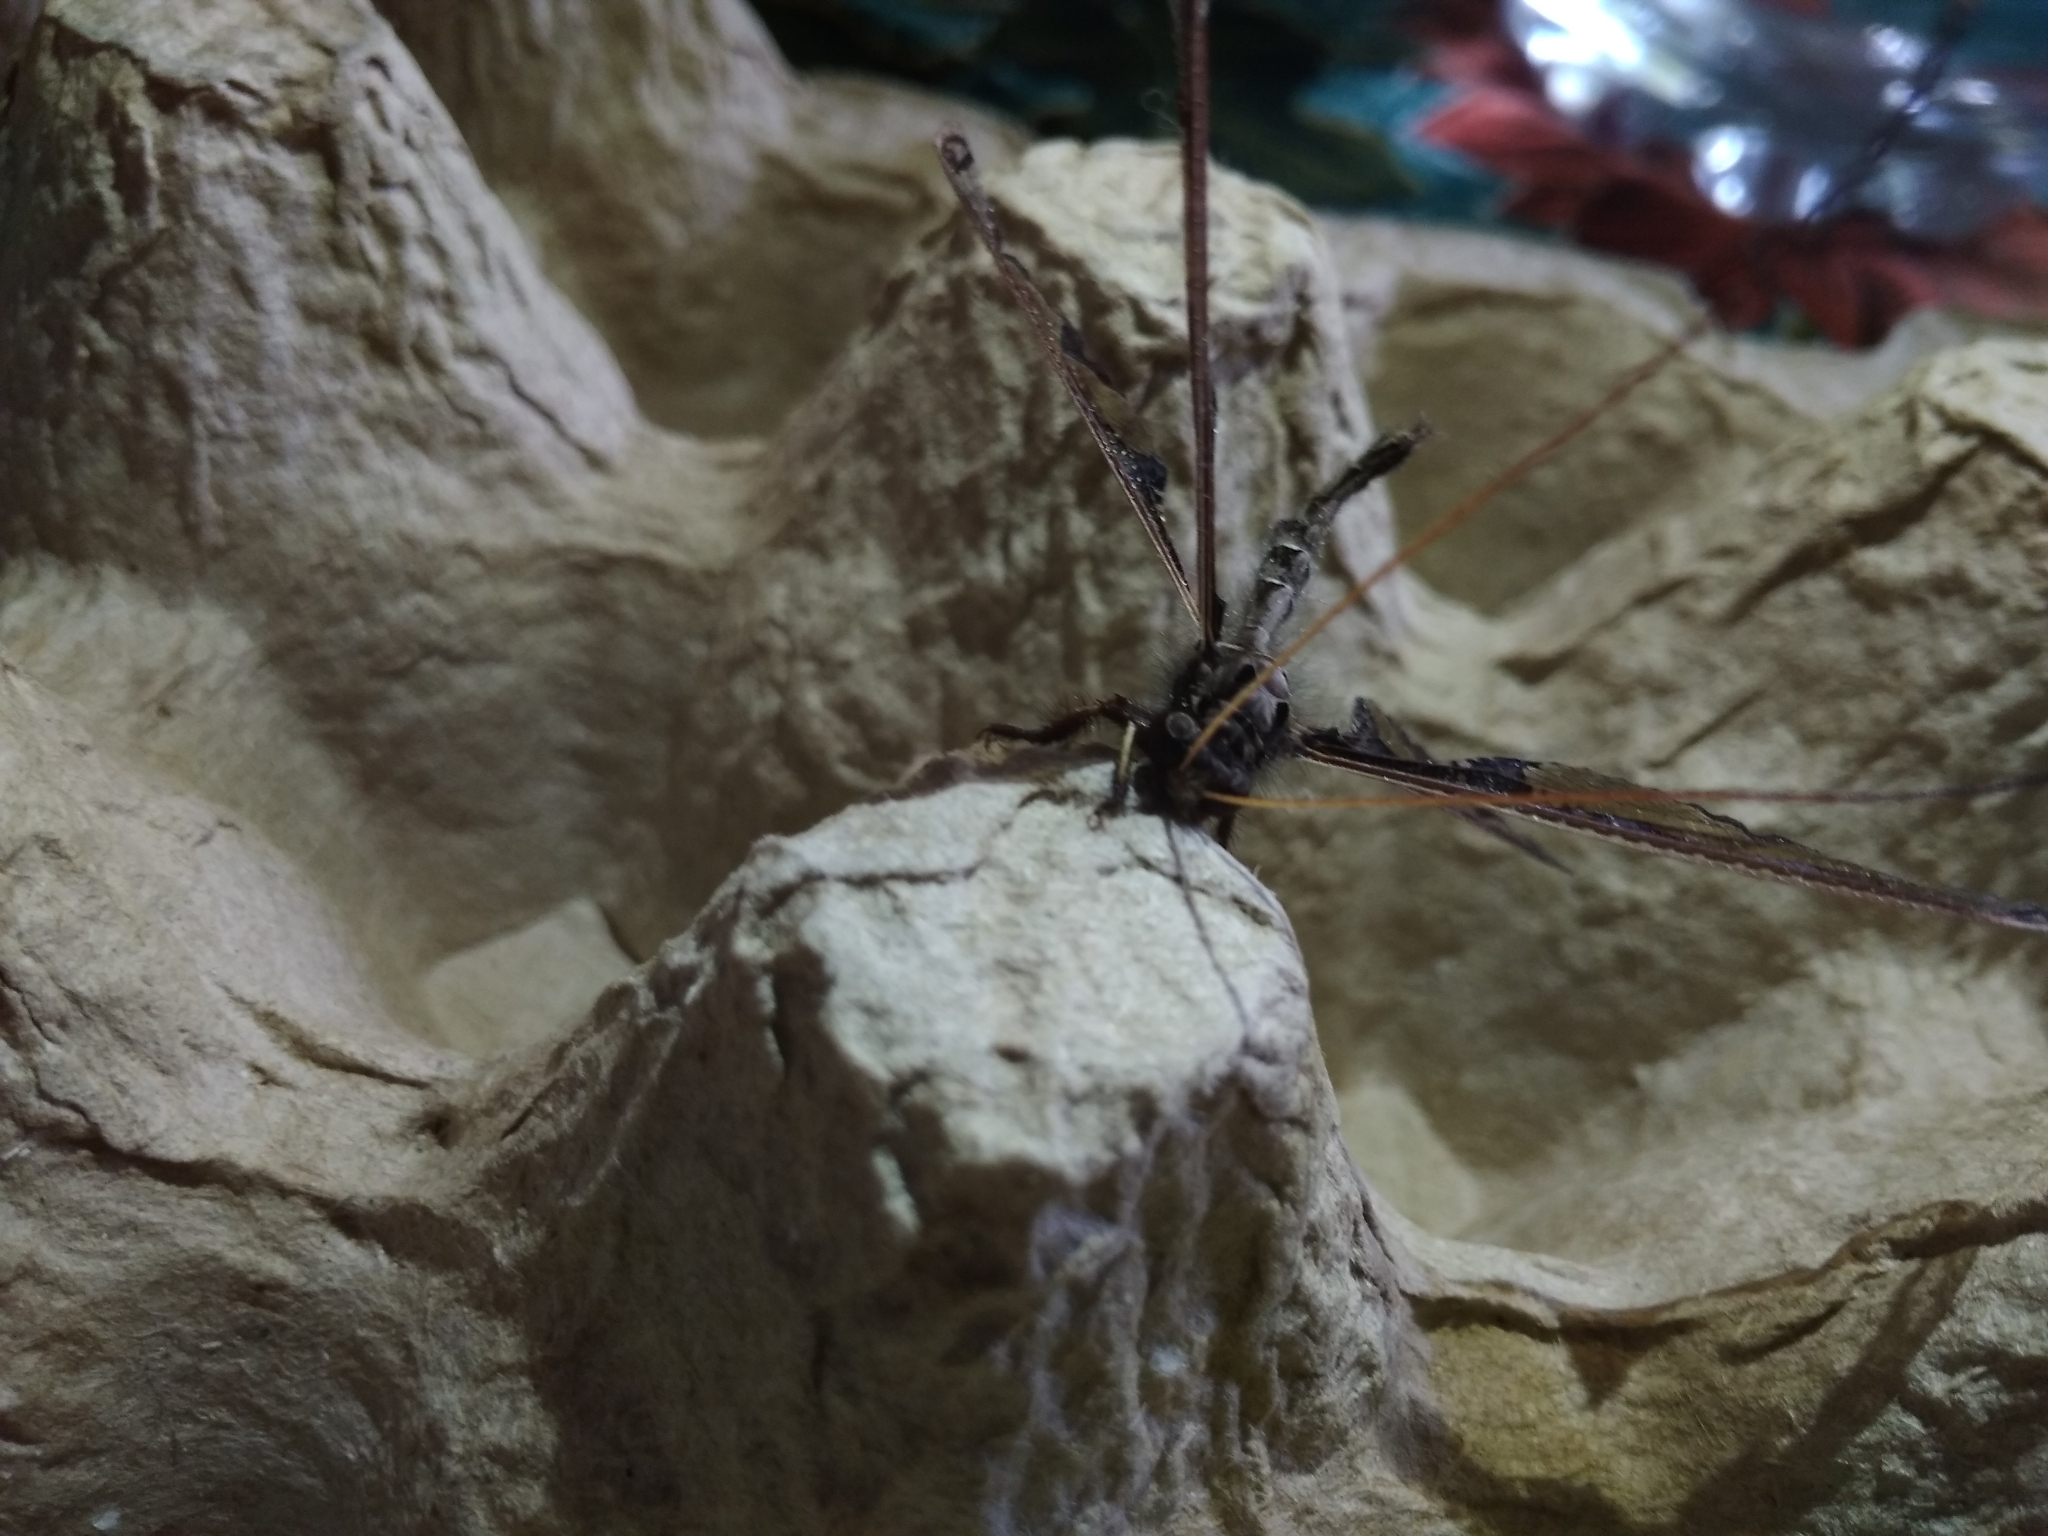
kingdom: Animalia
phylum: Arthropoda
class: Insecta
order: Neuroptera
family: Ascalaphidae
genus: Tmesibasis
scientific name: Tmesibasis lacerata
